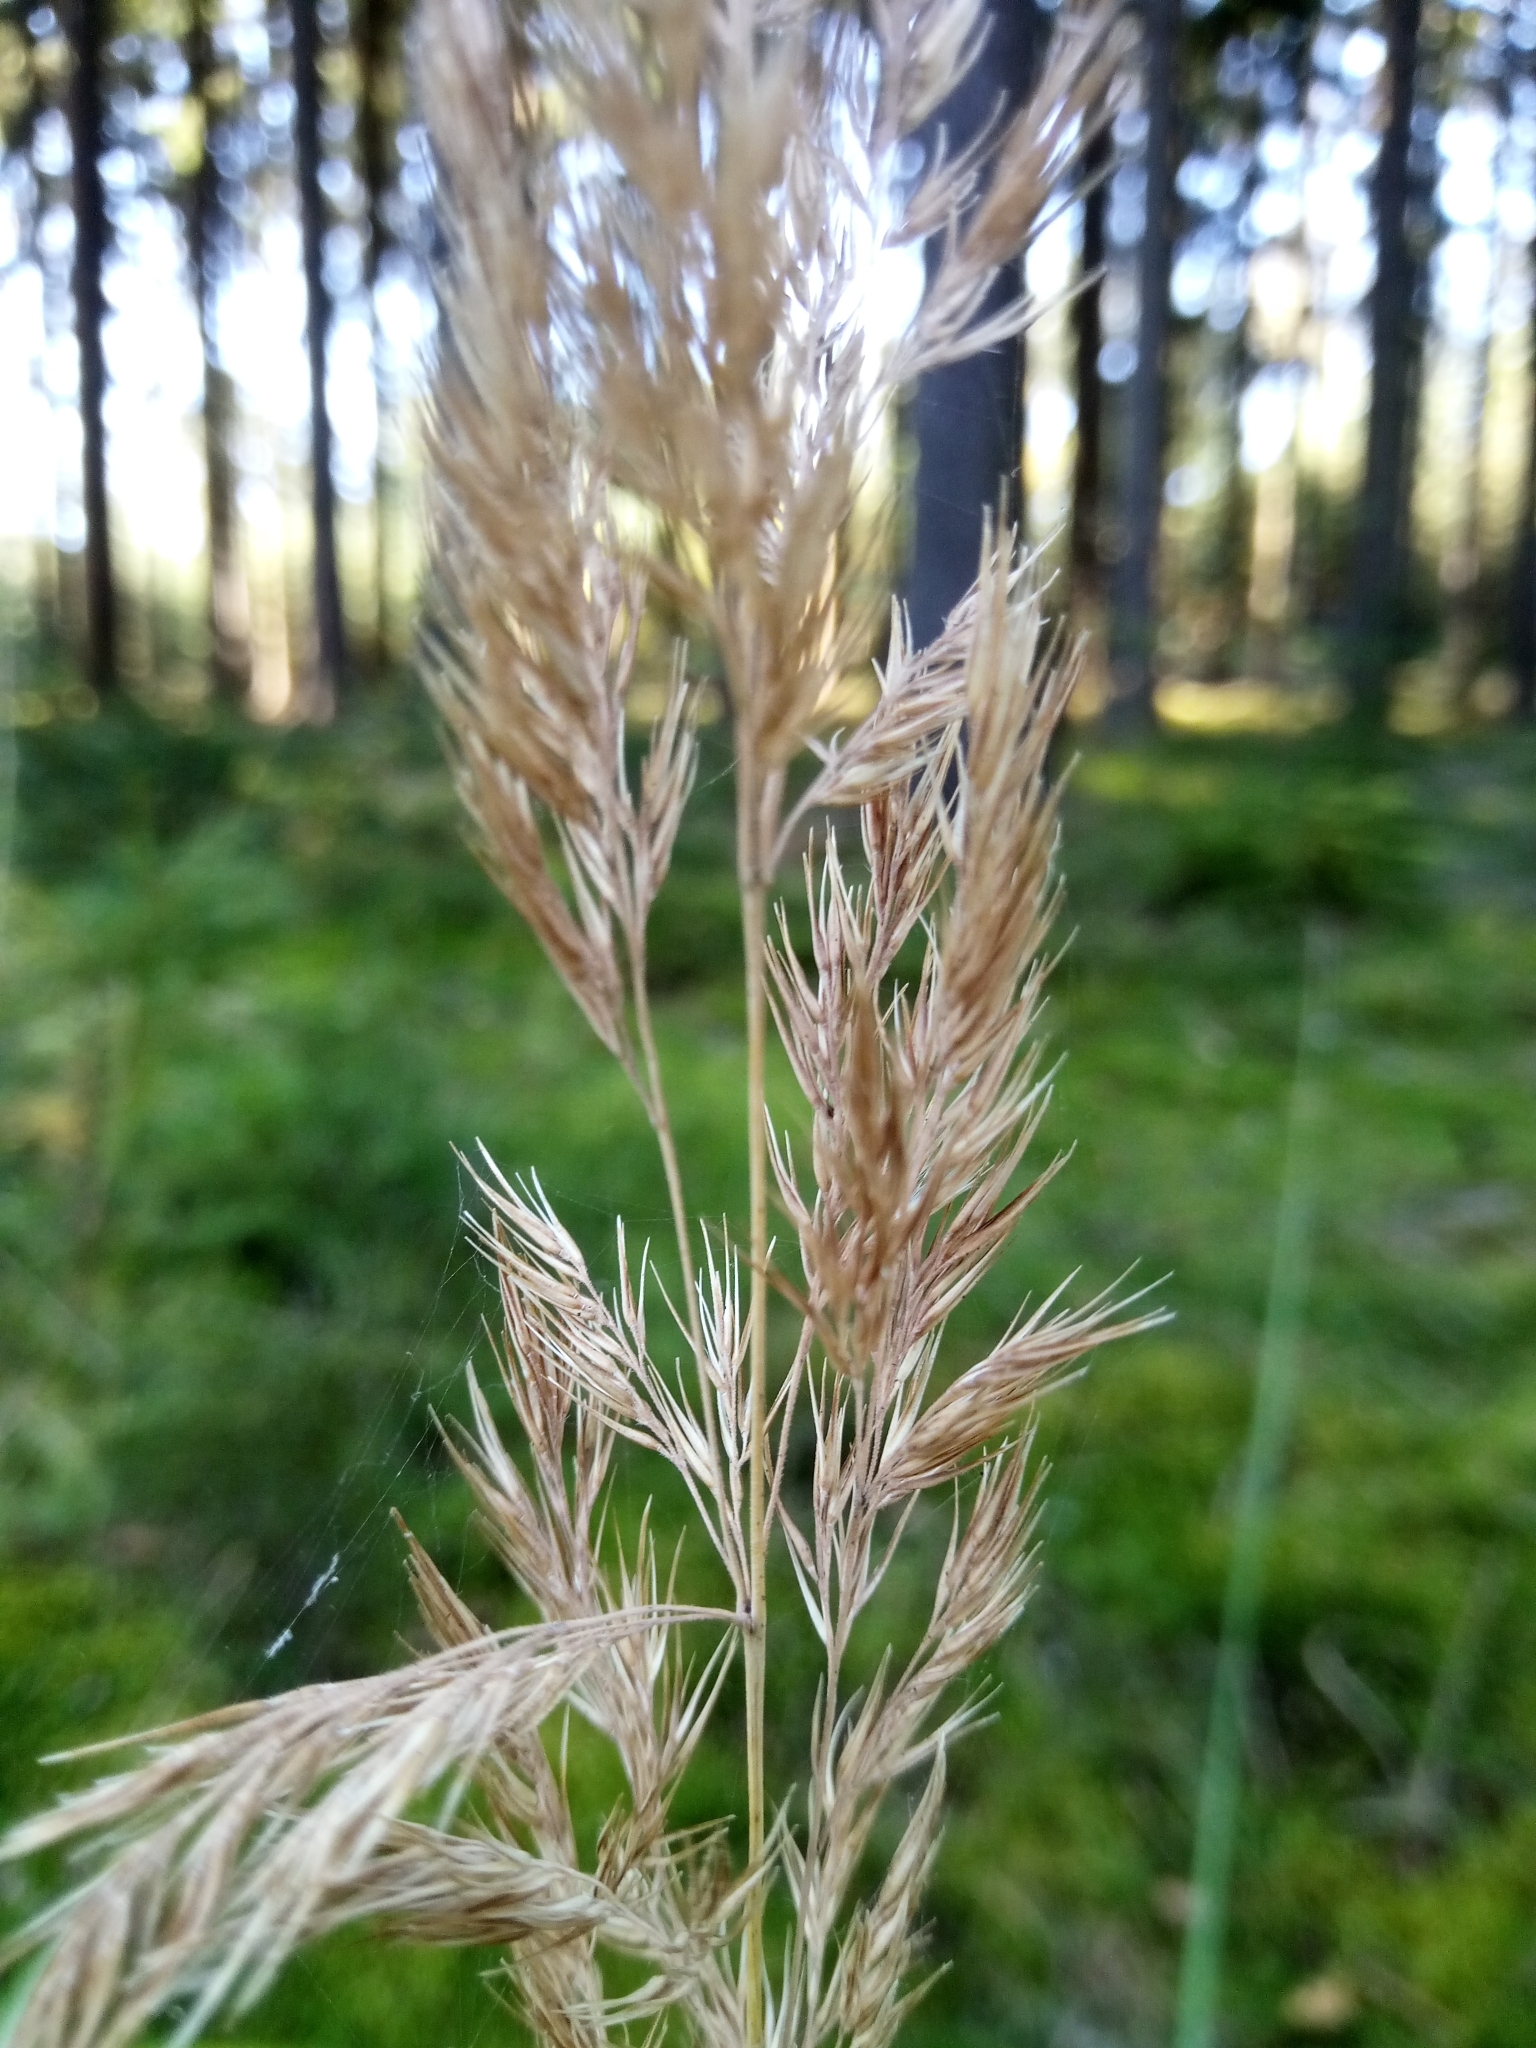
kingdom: Plantae
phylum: Tracheophyta
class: Liliopsida
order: Poales
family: Poaceae
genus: Calamagrostis
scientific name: Calamagrostis epigejos
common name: Wood small-reed
